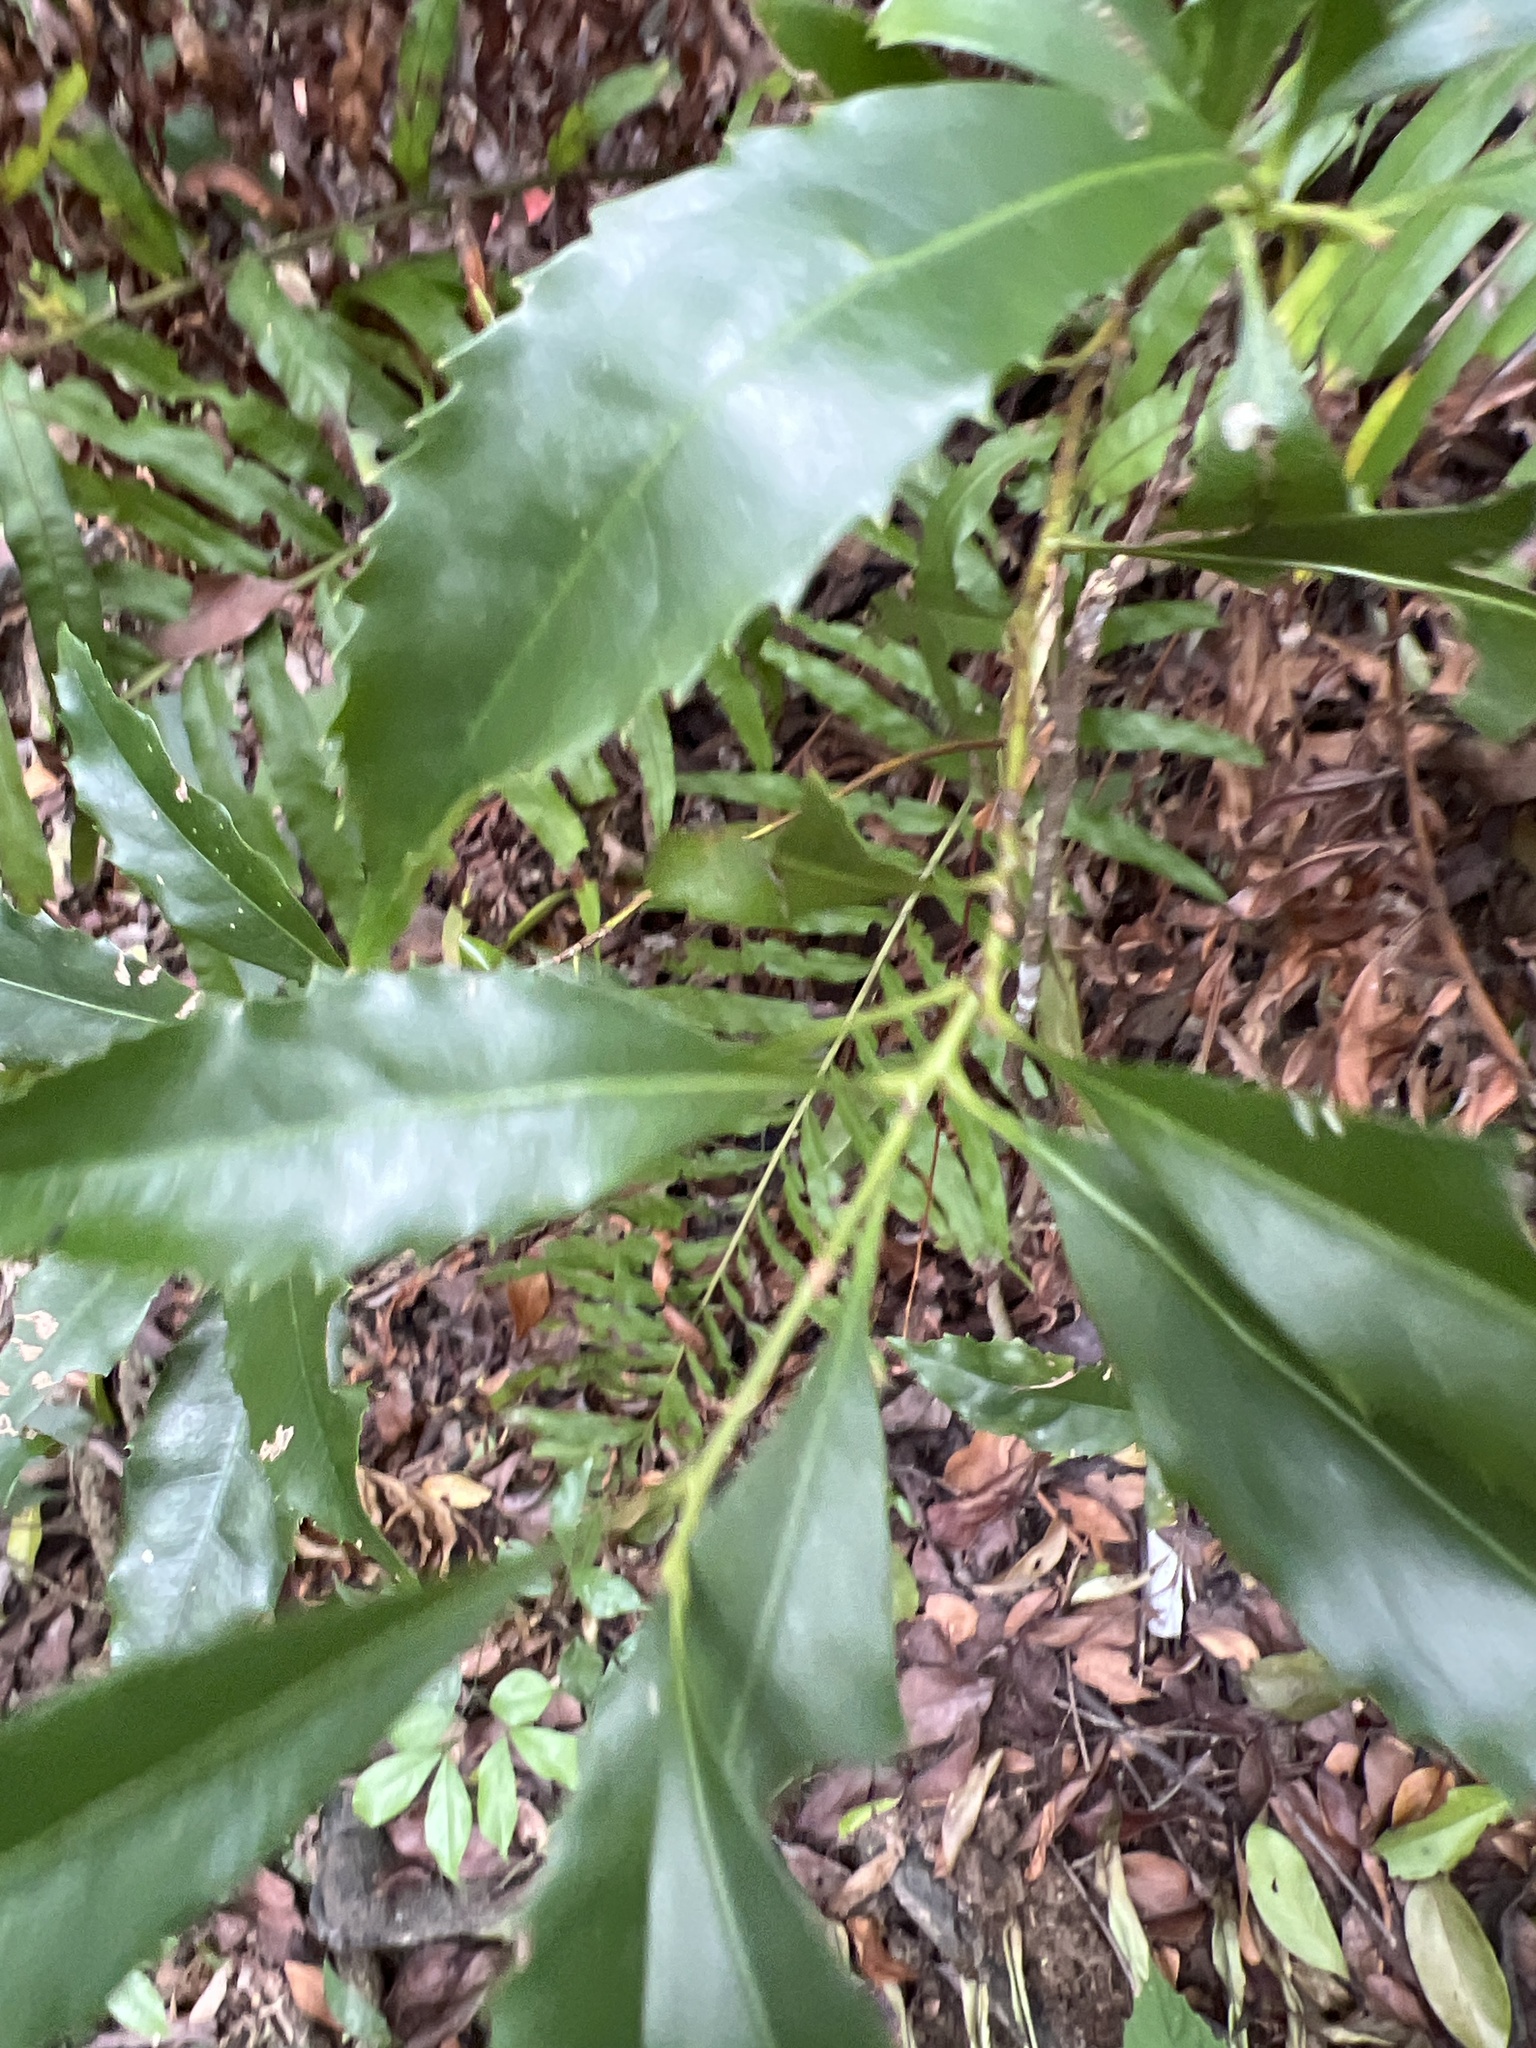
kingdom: Plantae
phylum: Tracheophyta
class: Magnoliopsida
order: Proteales
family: Proteaceae
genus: Helicia
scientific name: Helicia cochinchinensis
